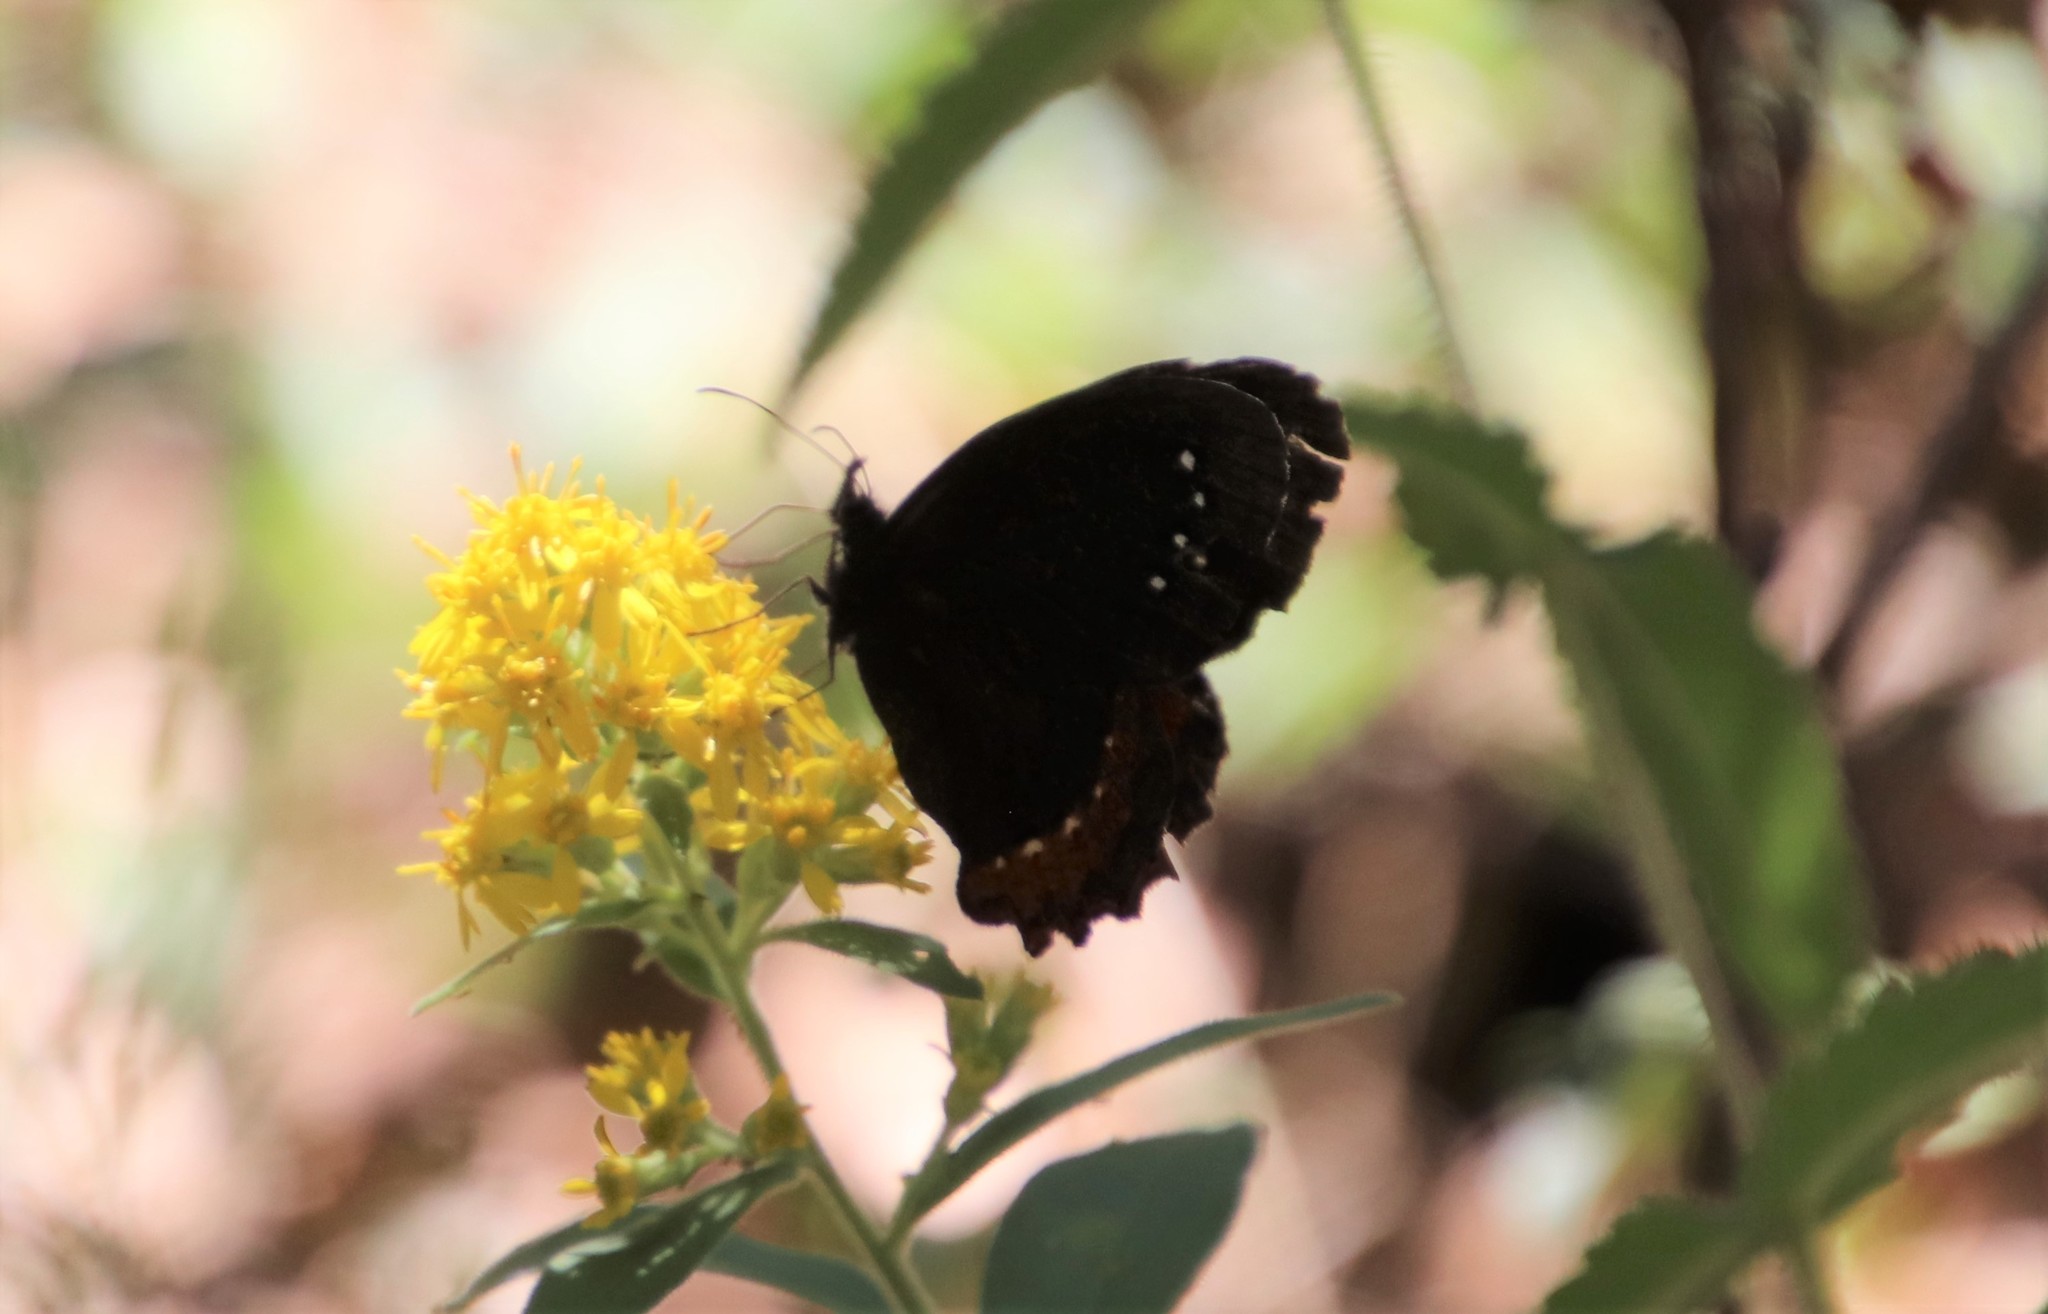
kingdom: Animalia
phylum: Arthropoda
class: Insecta
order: Lepidoptera
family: Nymphalidae
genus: Gyrocheilus
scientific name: Gyrocheilus patrobas
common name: Red-bordered satyr
